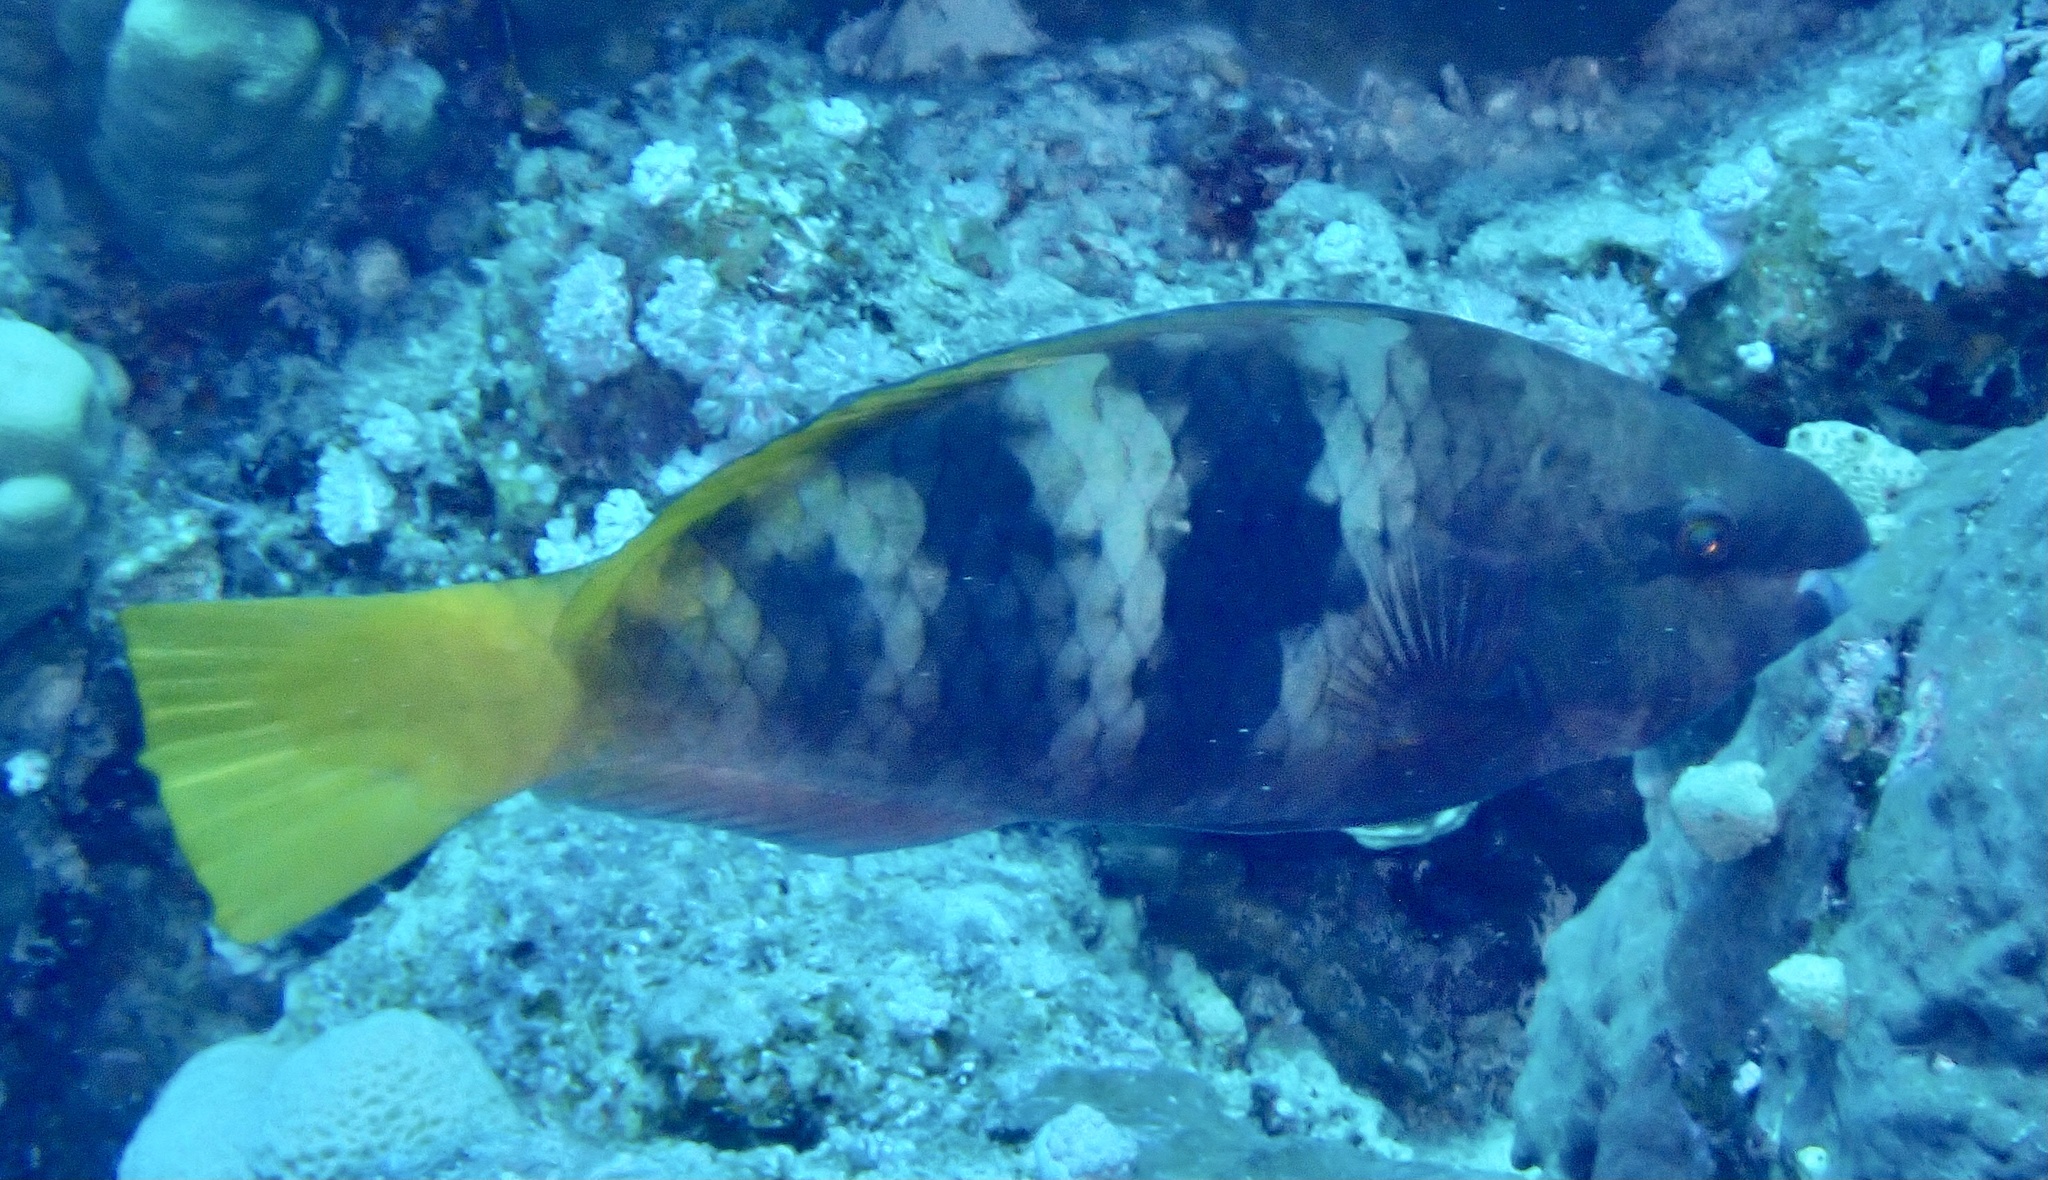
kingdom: Animalia
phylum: Chordata
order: Perciformes
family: Scaridae
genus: Scarus
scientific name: Scarus ferrugineus
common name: Rusty parrotfish
